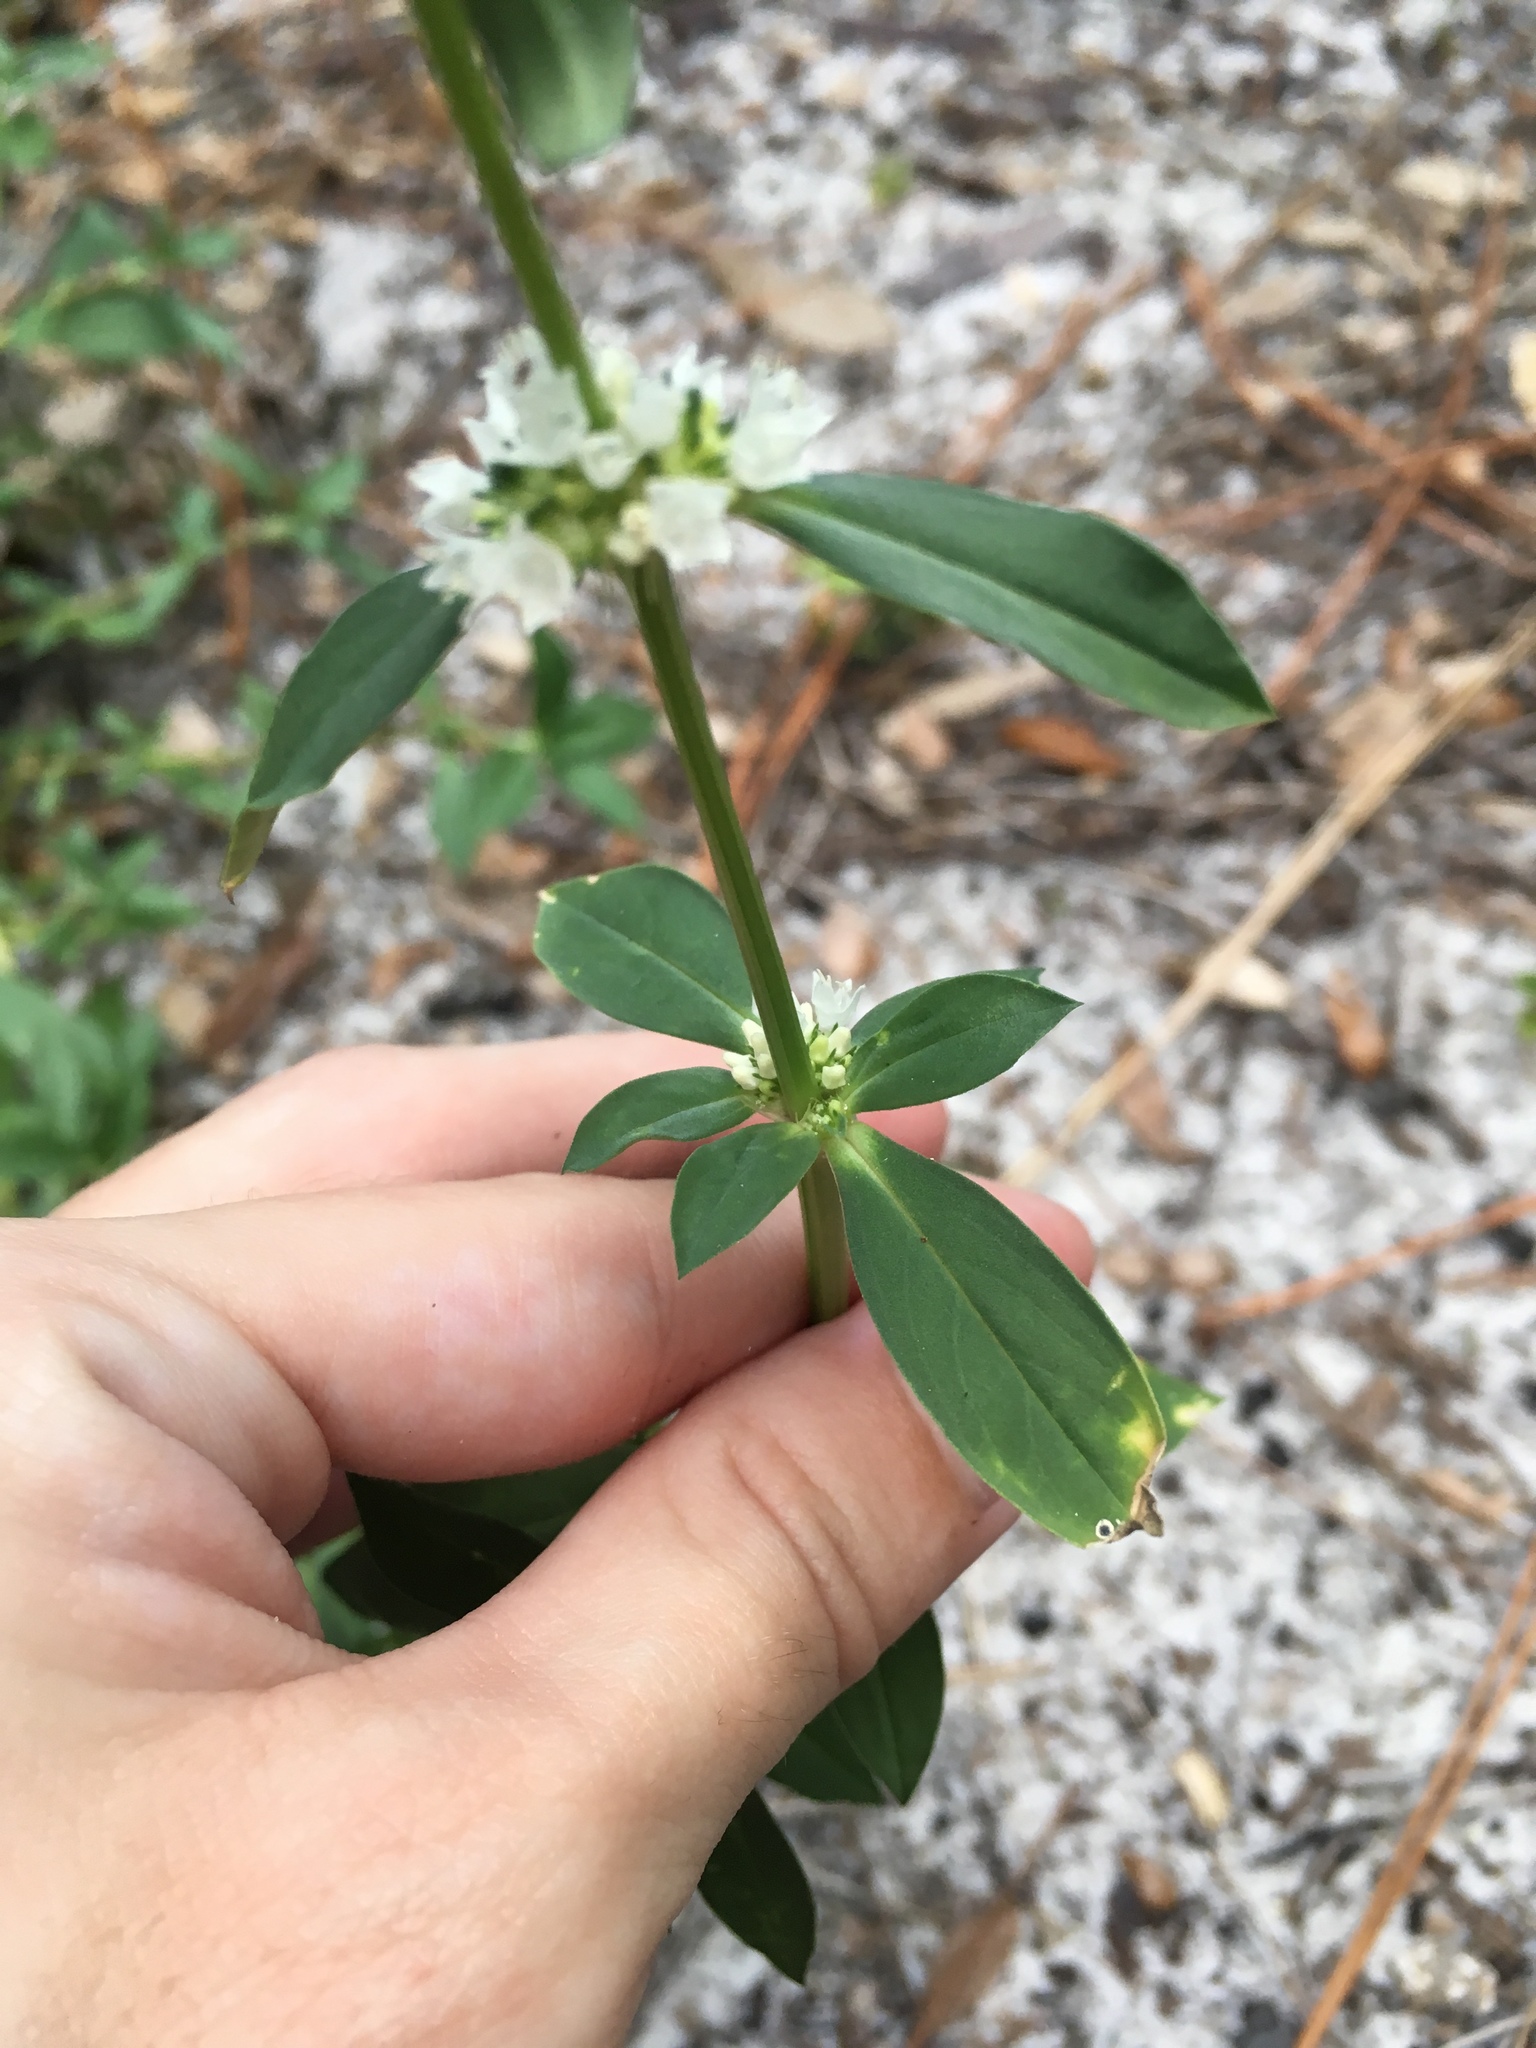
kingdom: Plantae
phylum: Tracheophyta
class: Magnoliopsida
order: Gentianales
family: Rubiaceae
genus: Diacrodon
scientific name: Diacrodon compressus
